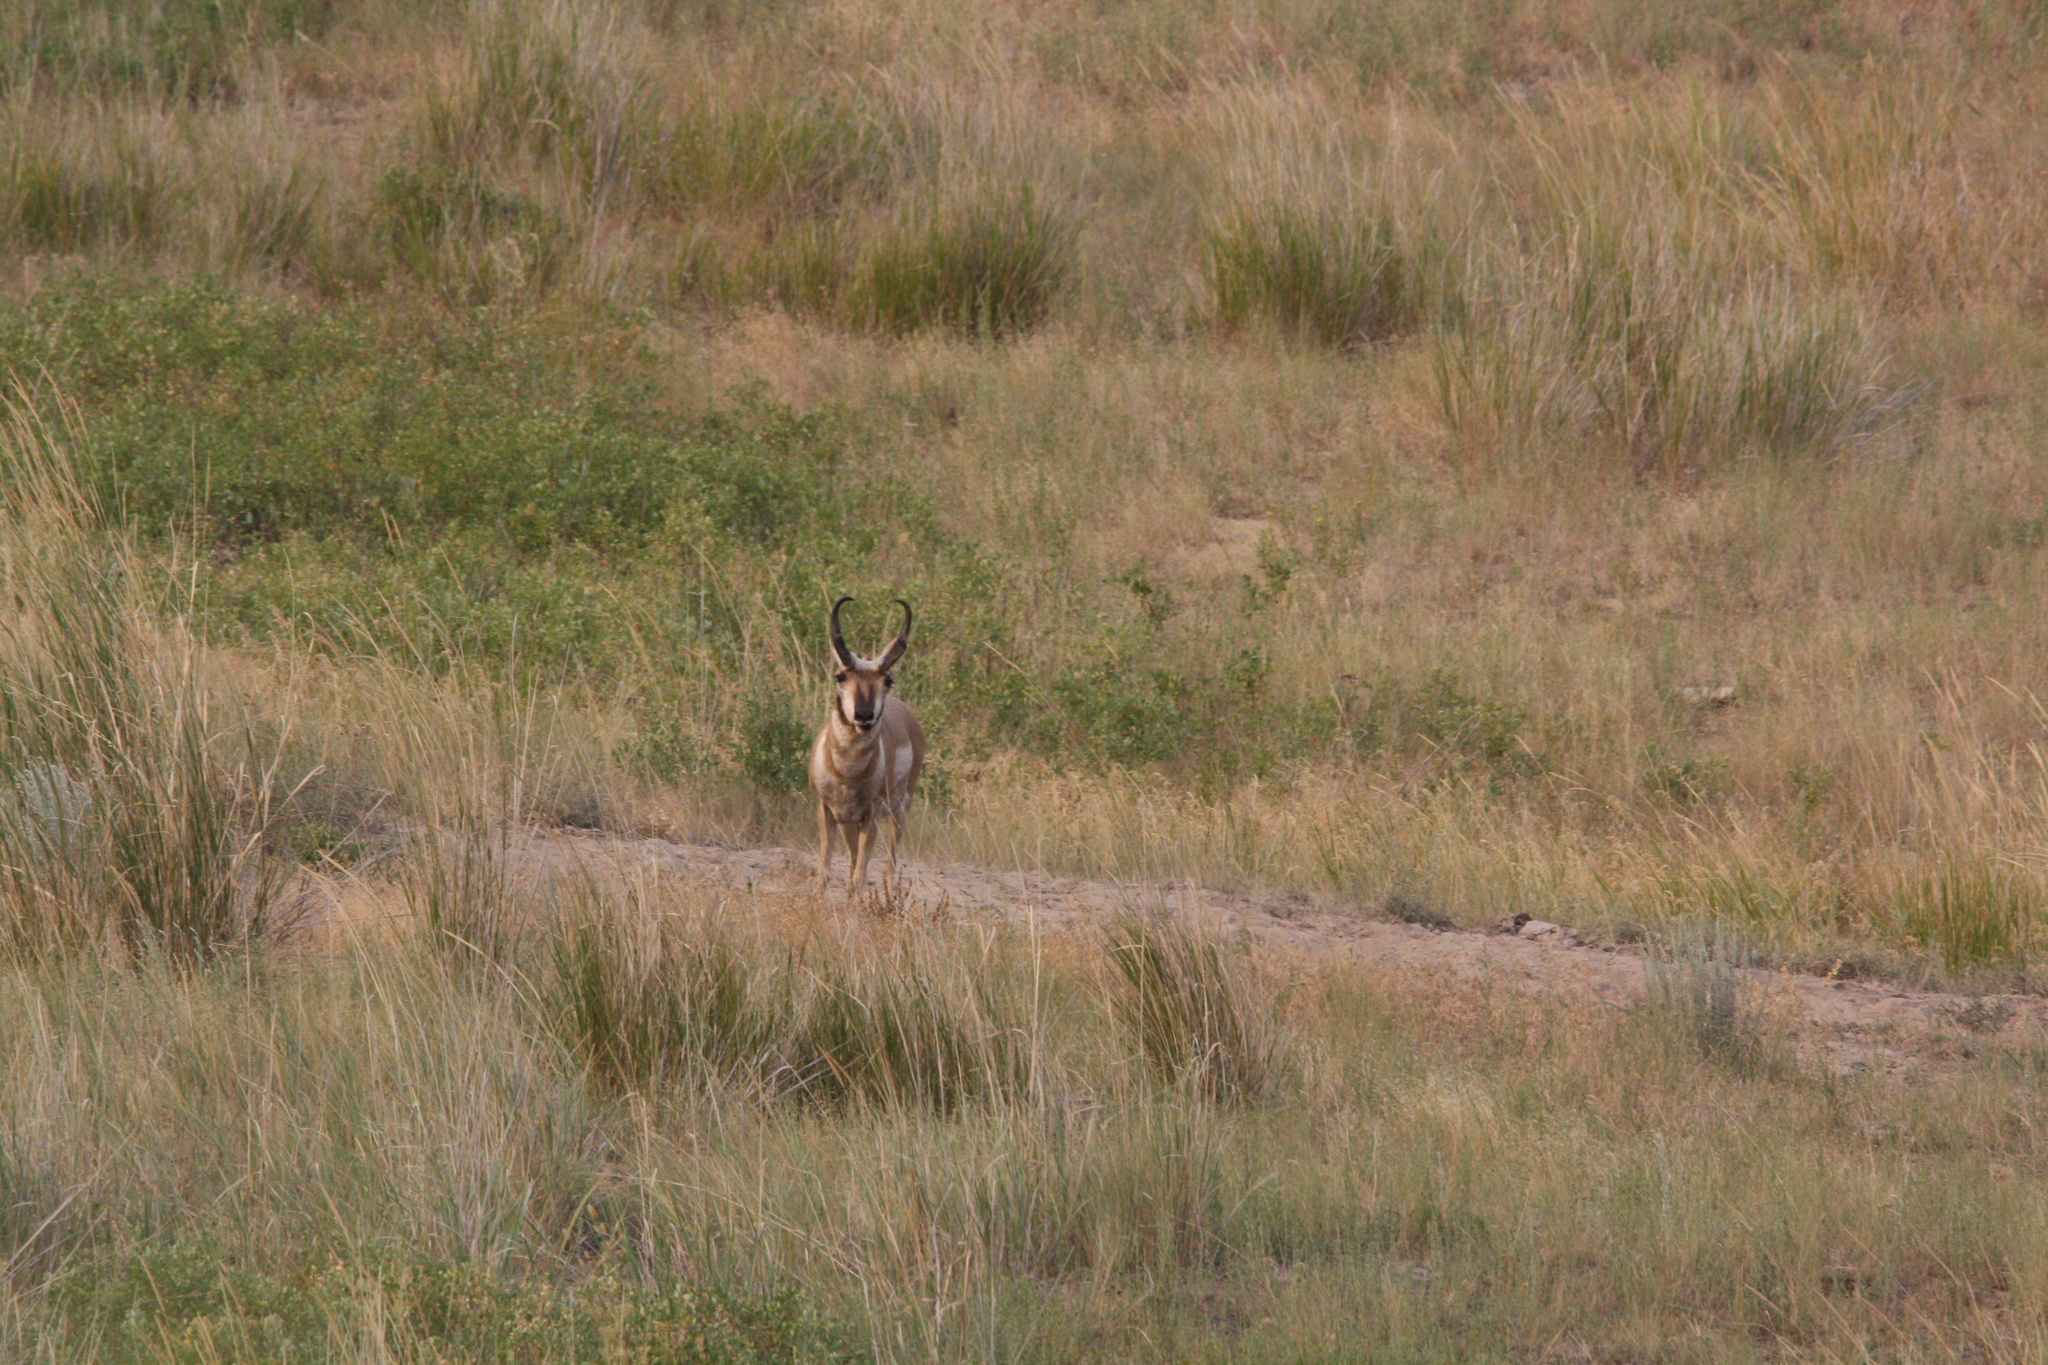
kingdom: Animalia
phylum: Chordata
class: Mammalia
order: Artiodactyla
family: Antilocapridae
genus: Antilocapra
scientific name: Antilocapra americana
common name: Pronghorn
